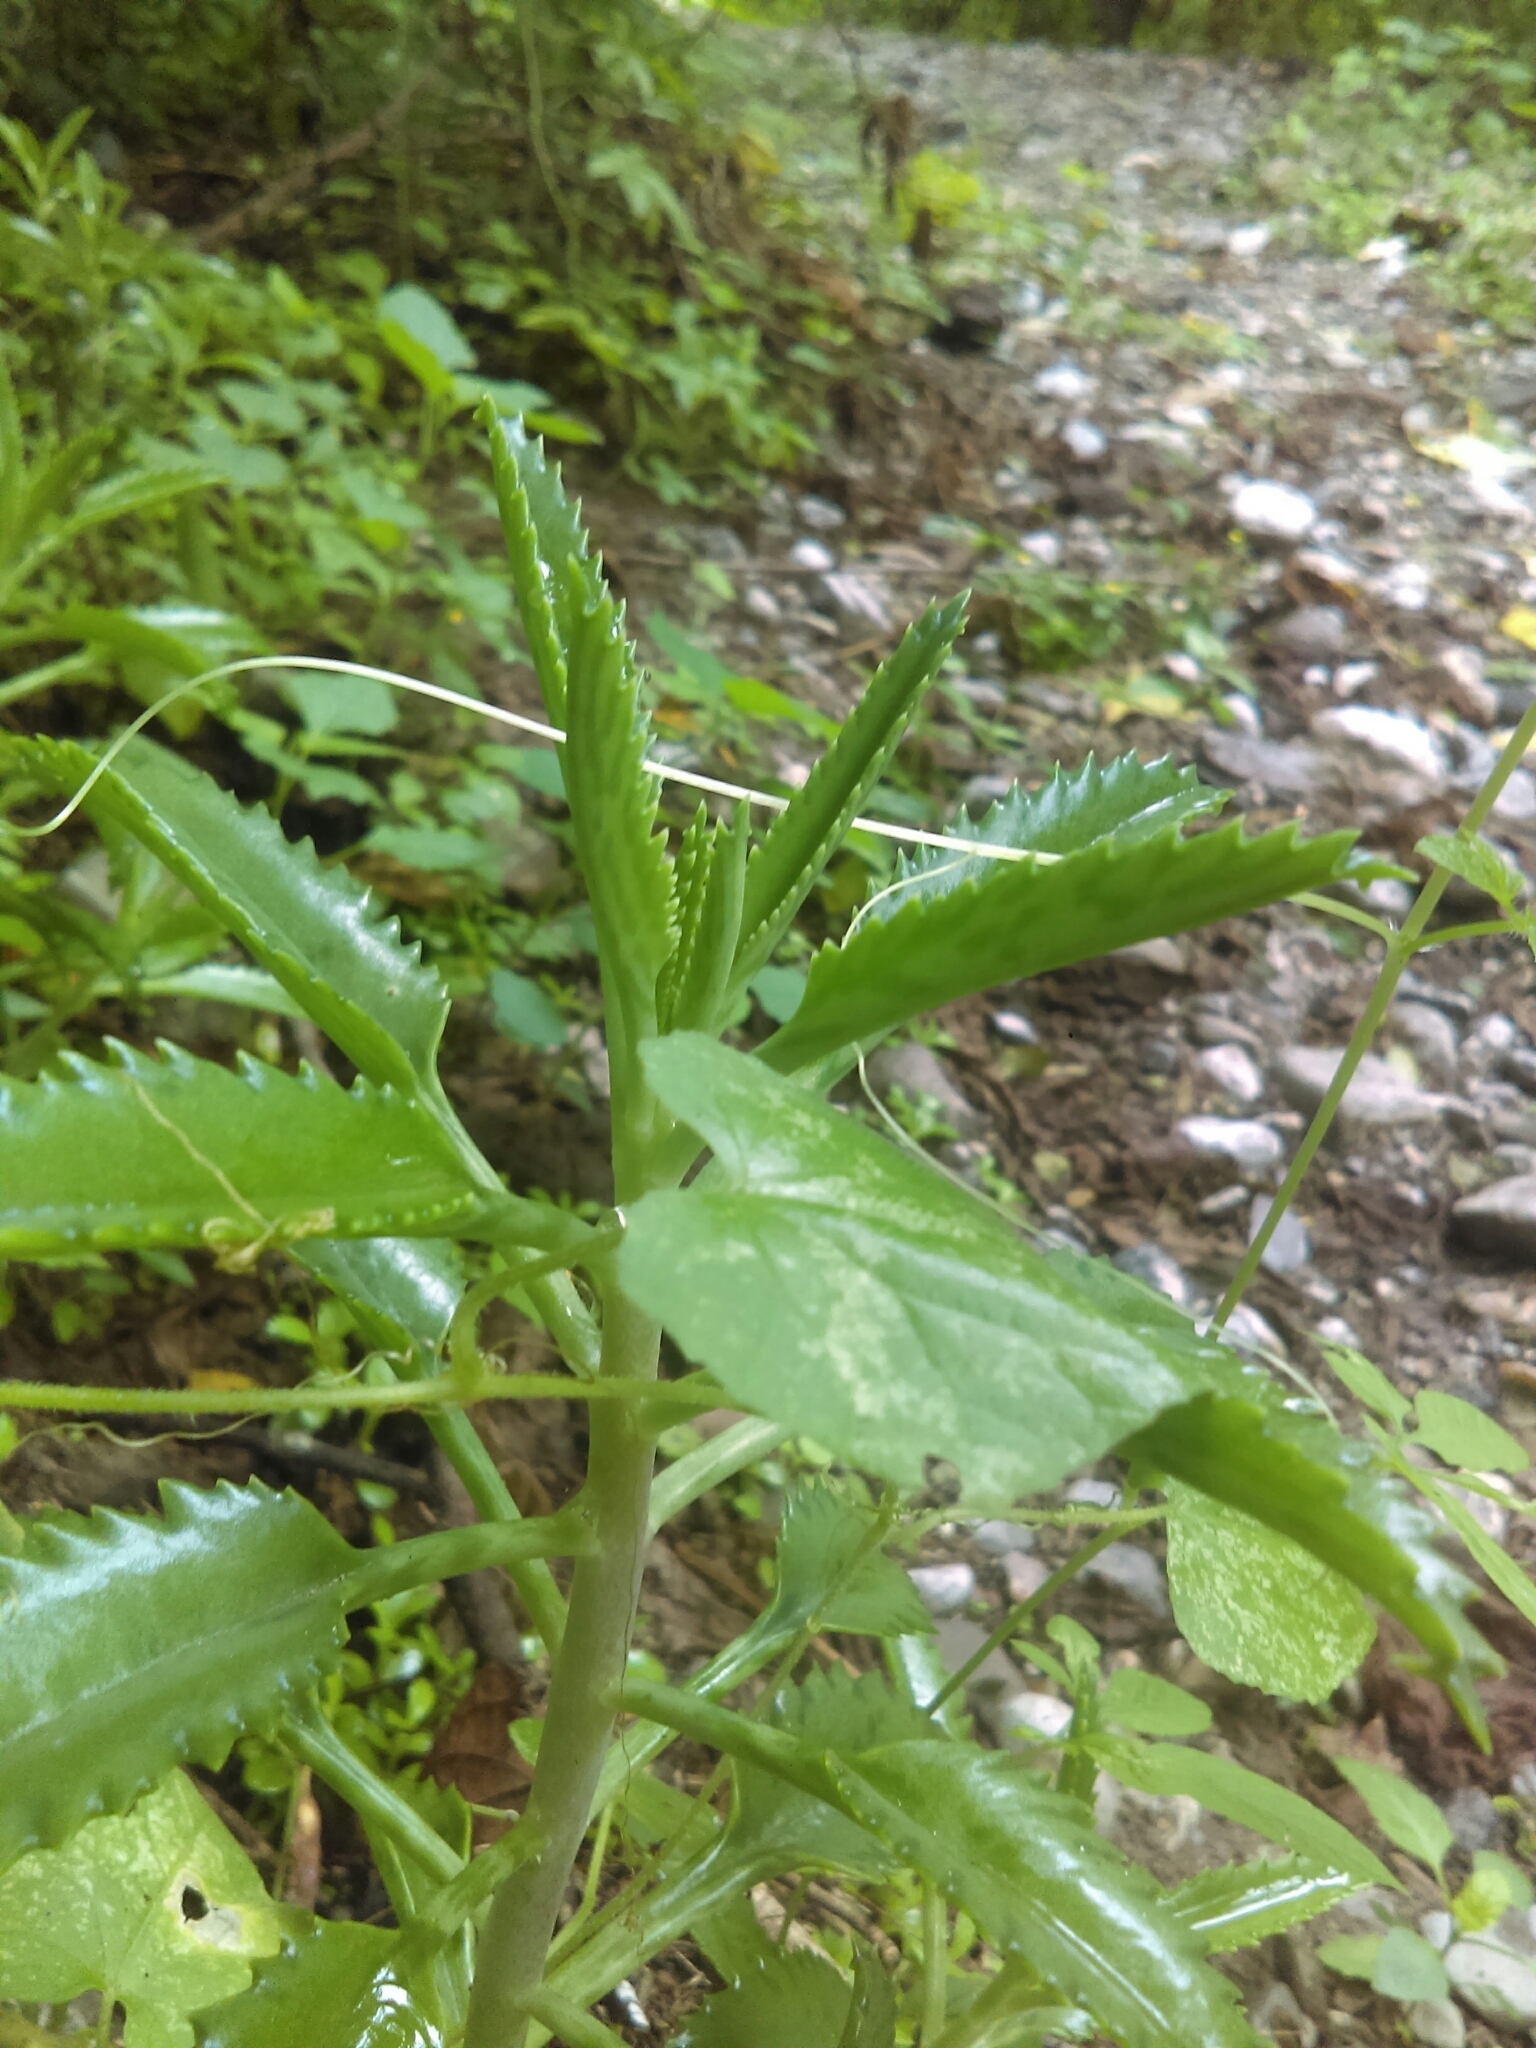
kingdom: Plantae
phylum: Tracheophyta
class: Magnoliopsida
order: Saxifragales
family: Crassulaceae
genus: Kalanchoe
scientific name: Kalanchoe houghtonii
